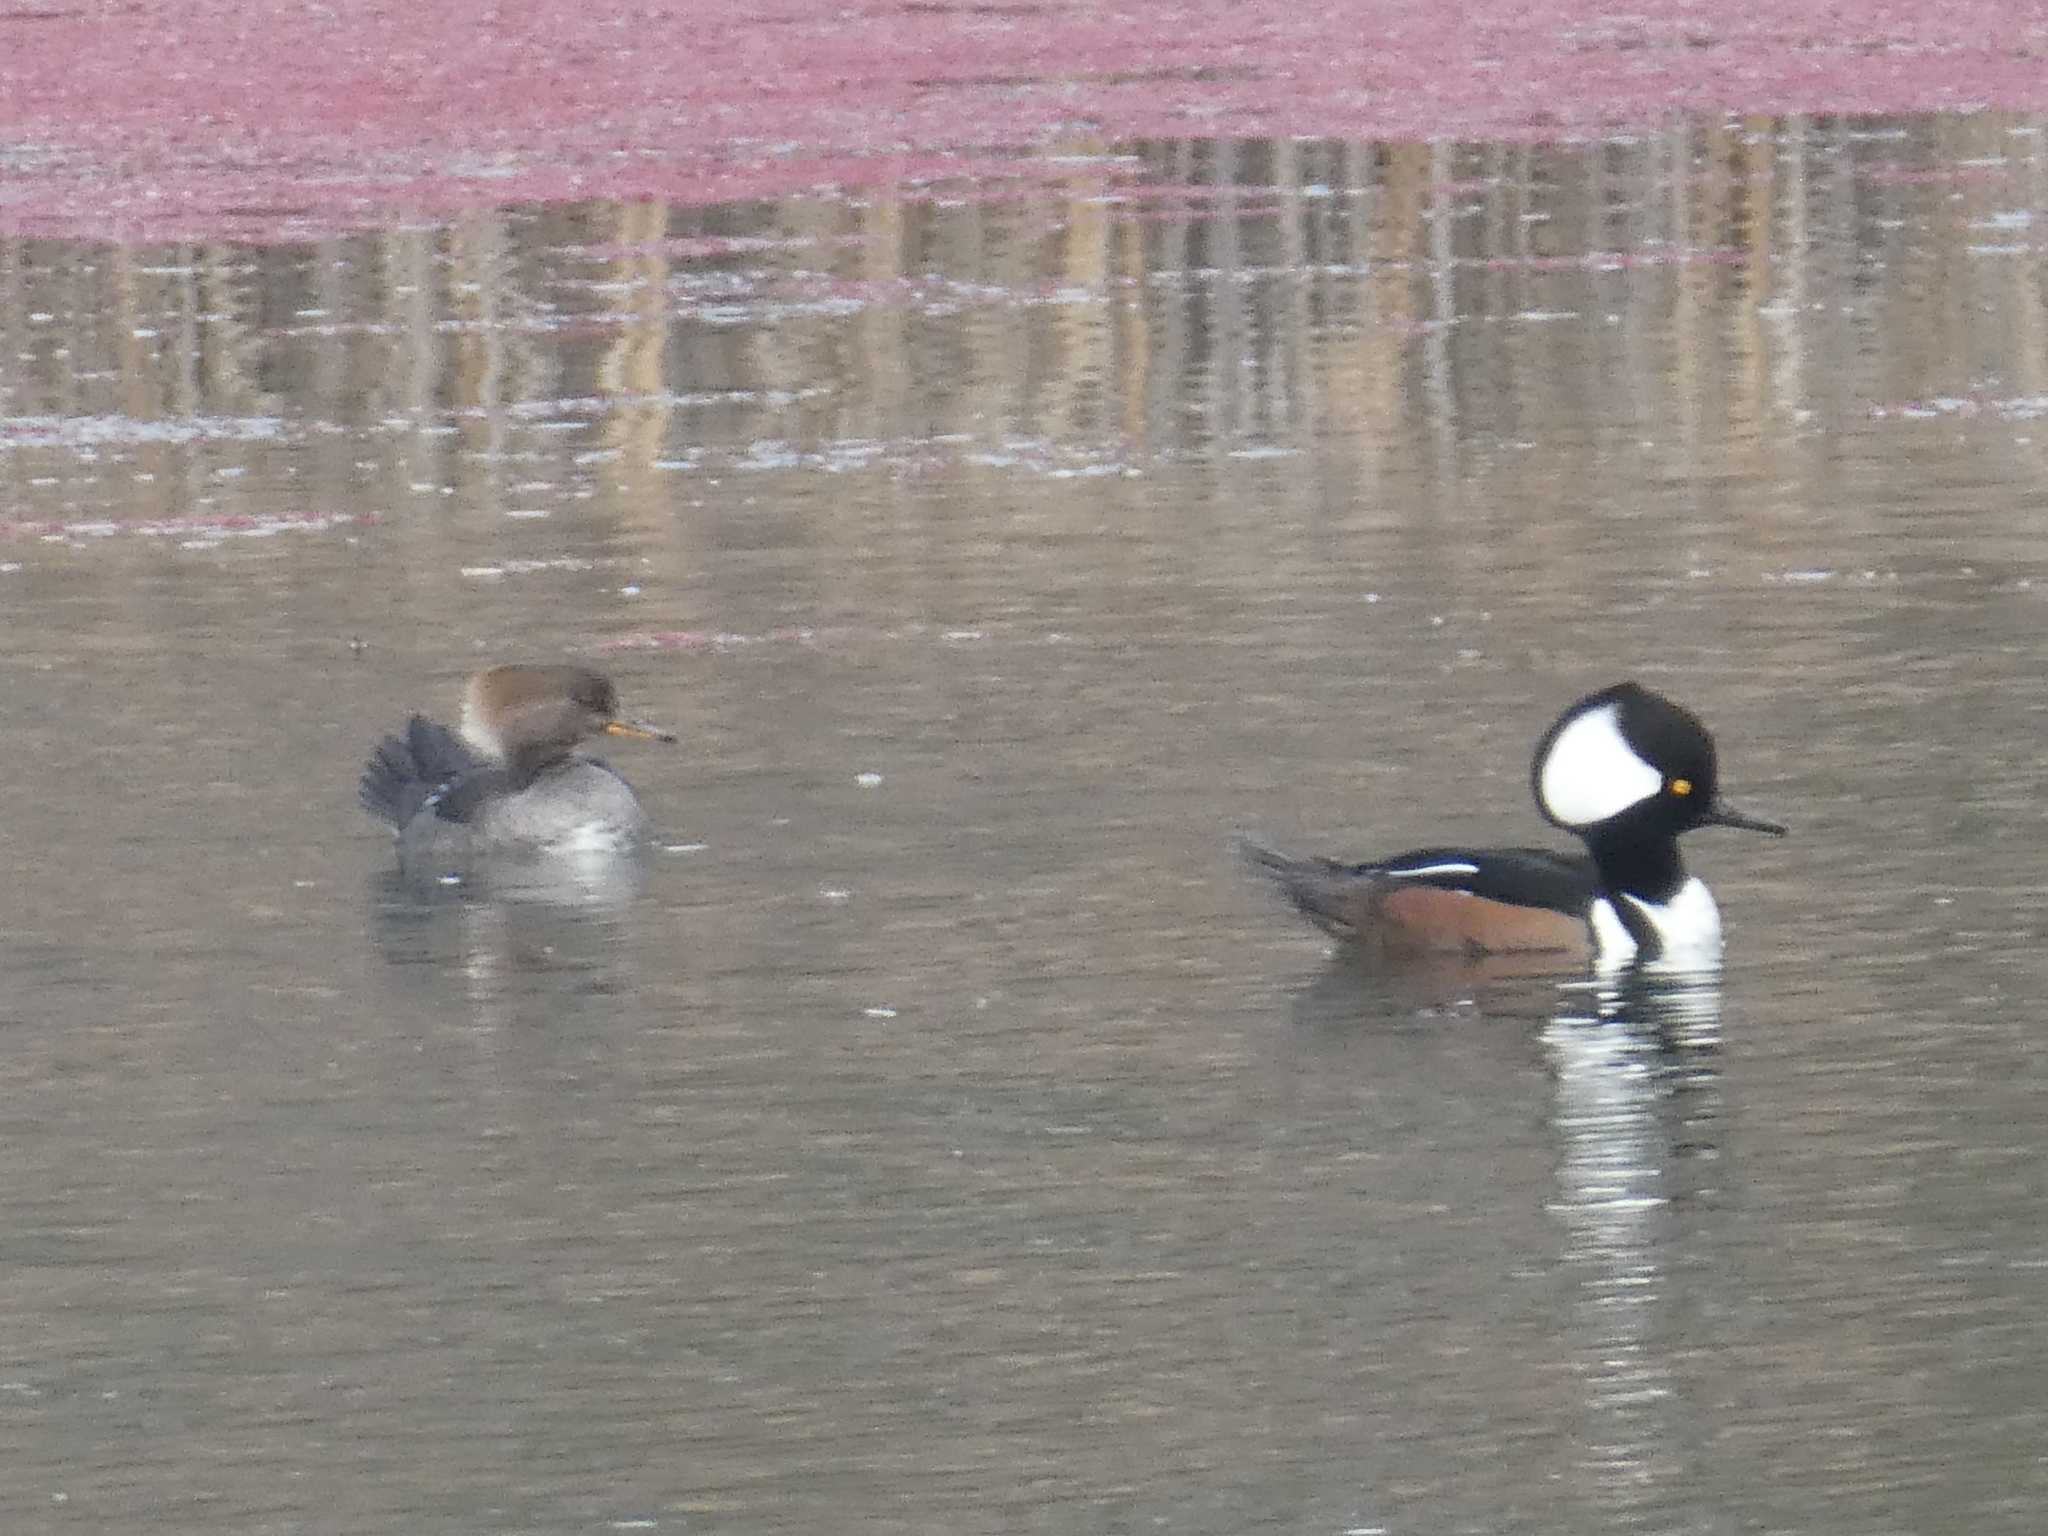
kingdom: Animalia
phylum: Chordata
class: Aves
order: Anseriformes
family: Anatidae
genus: Lophodytes
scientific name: Lophodytes cucullatus
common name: Hooded merganser
